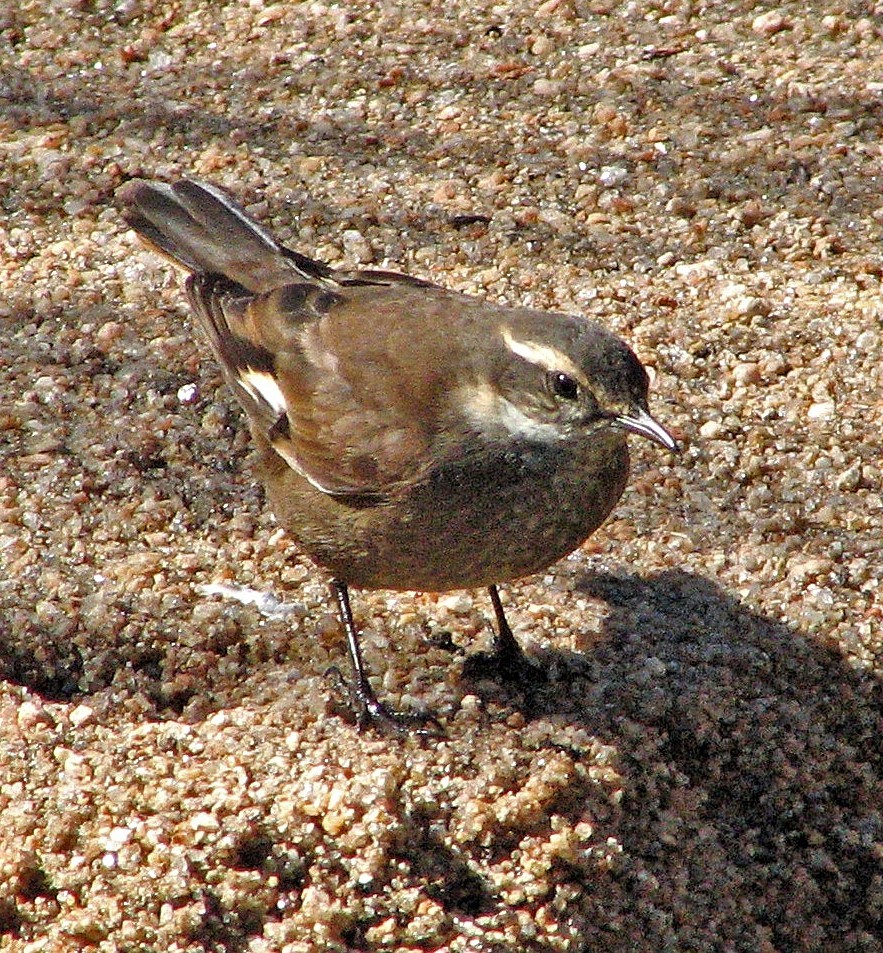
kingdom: Animalia
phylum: Chordata
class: Aves
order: Passeriformes
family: Furnariidae
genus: Cinclodes
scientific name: Cinclodes olrogi
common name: Olrog's cinclodes
